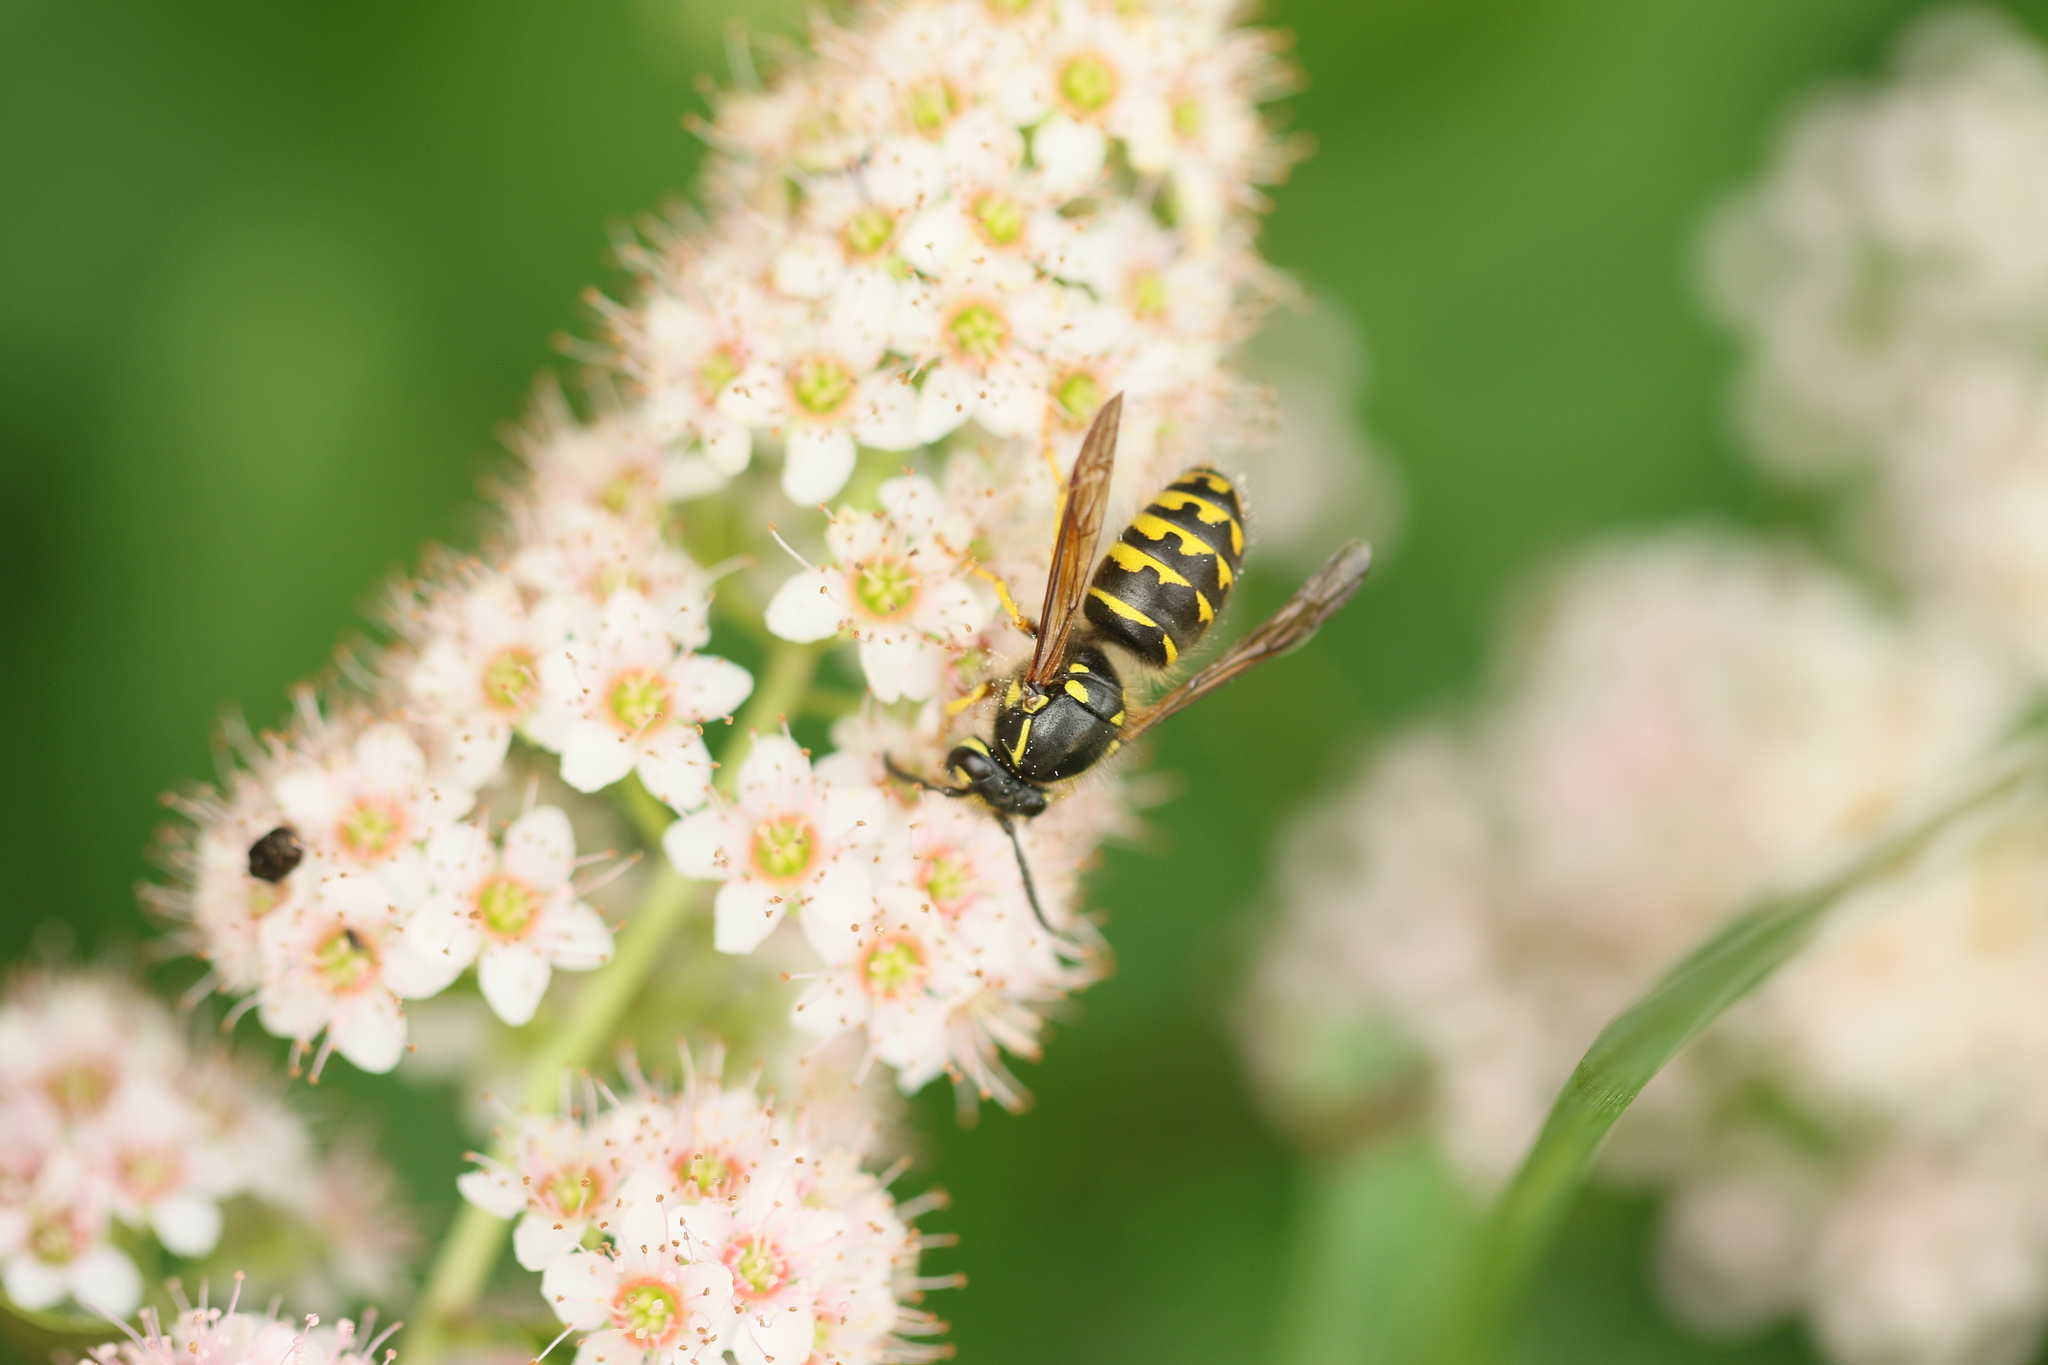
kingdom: Animalia
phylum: Arthropoda
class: Insecta
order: Hymenoptera
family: Vespidae
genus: Dolichovespula
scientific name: Dolichovespula arenaria
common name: Aerial yellowjacket
